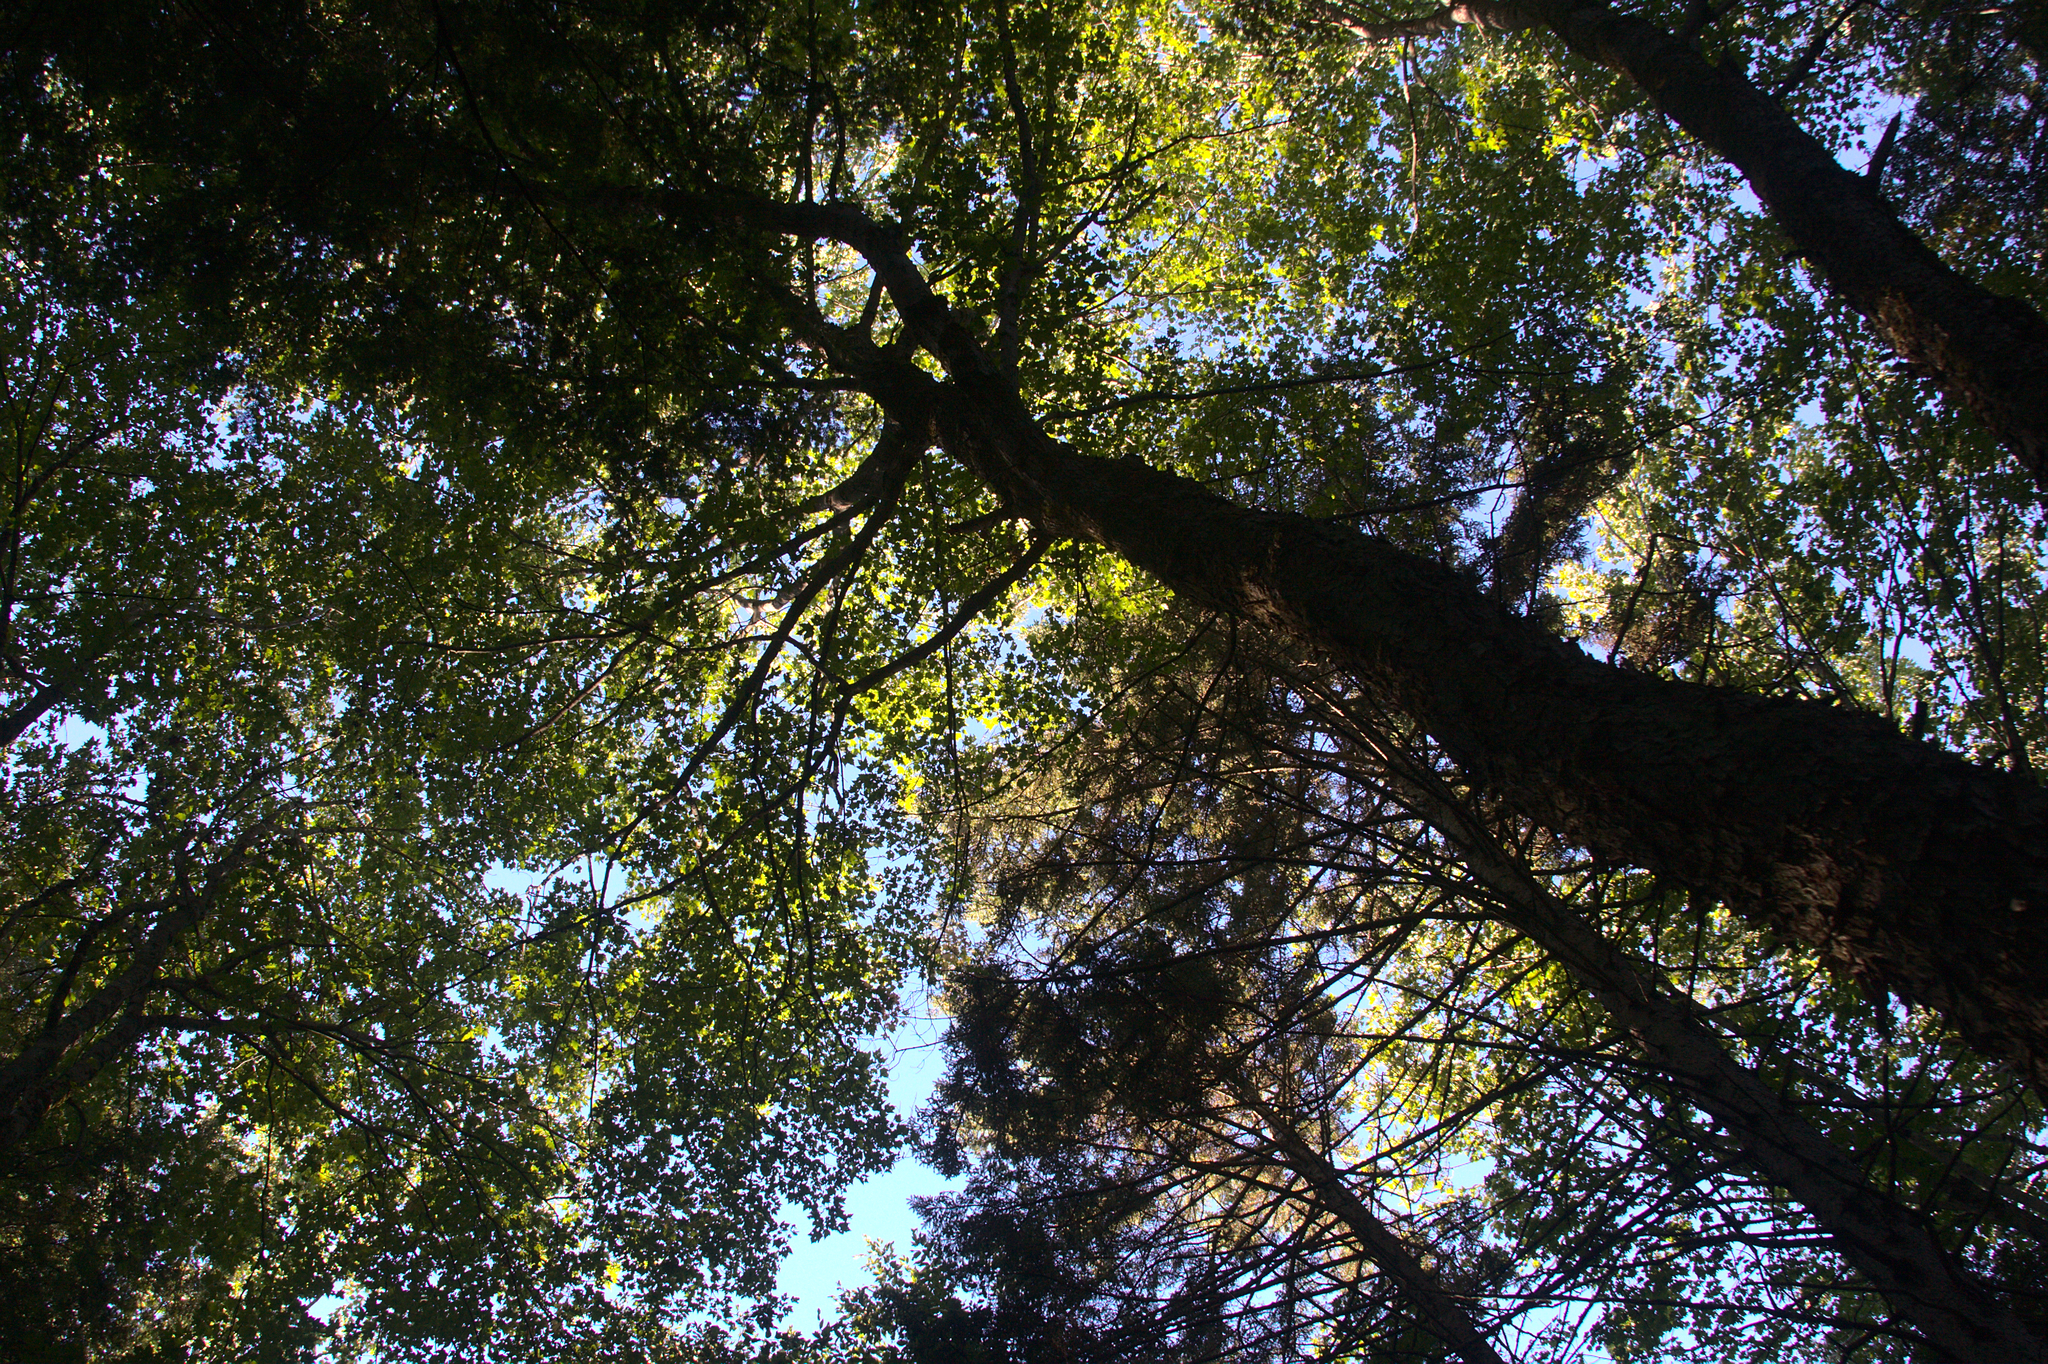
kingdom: Plantae
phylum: Tracheophyta
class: Magnoliopsida
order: Sapindales
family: Sapindaceae
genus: Acer
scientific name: Acer rubrum
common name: Red maple
